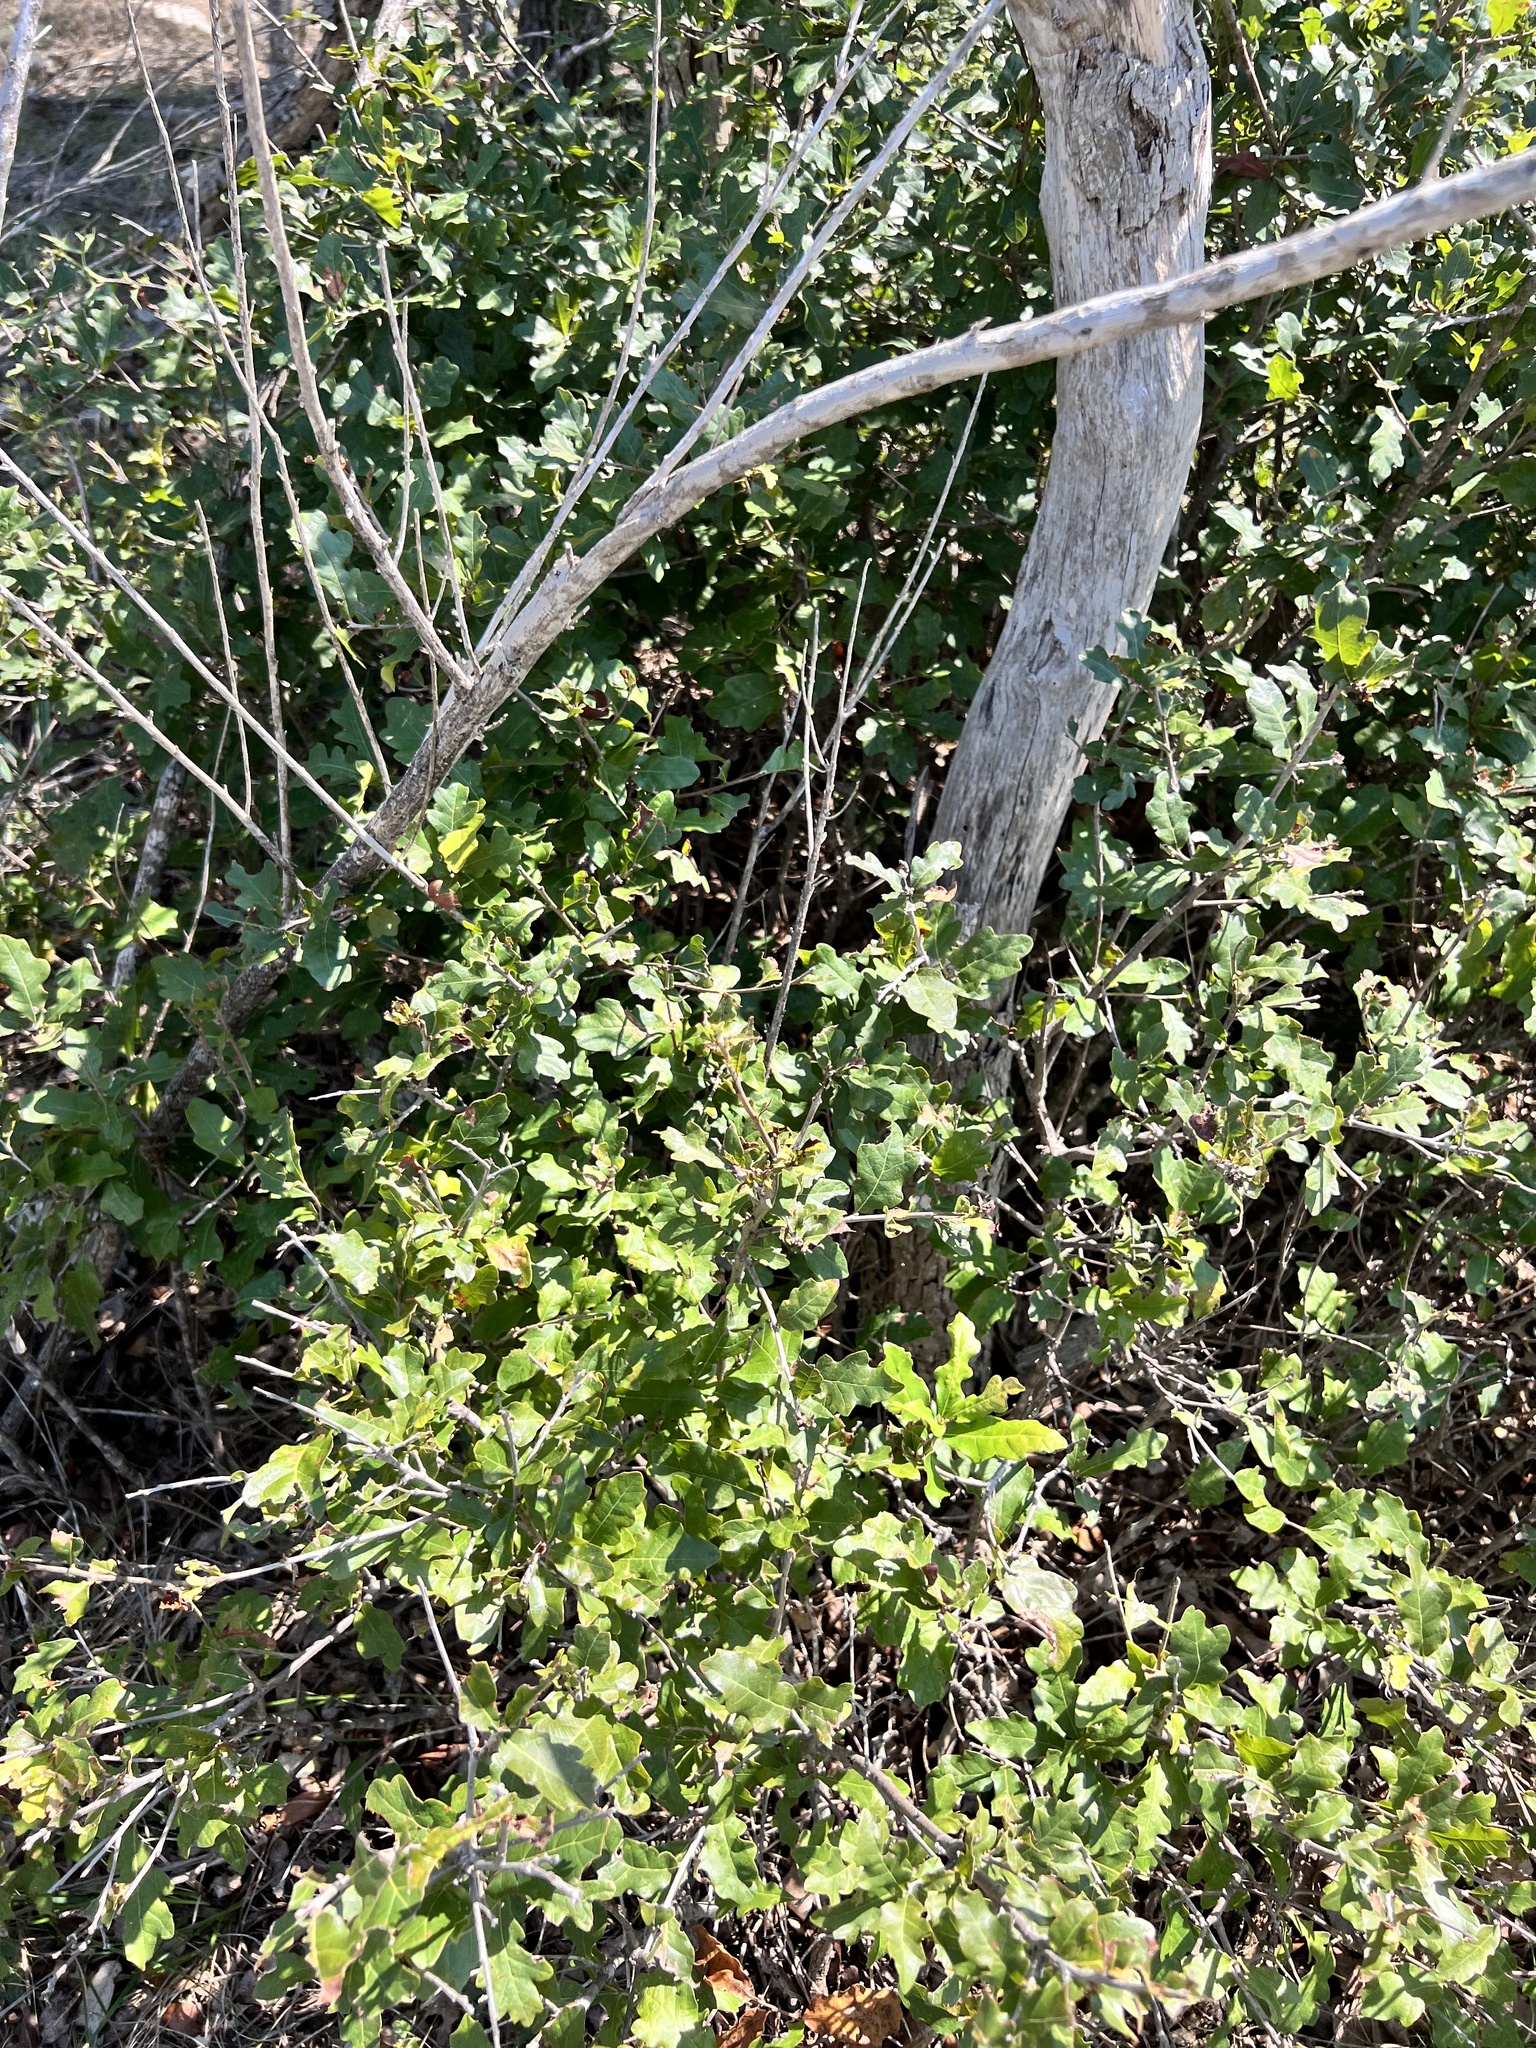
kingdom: Plantae
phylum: Tracheophyta
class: Magnoliopsida
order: Fagales
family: Fagaceae
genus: Quercus
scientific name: Quercus sinuata
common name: Durand oak
